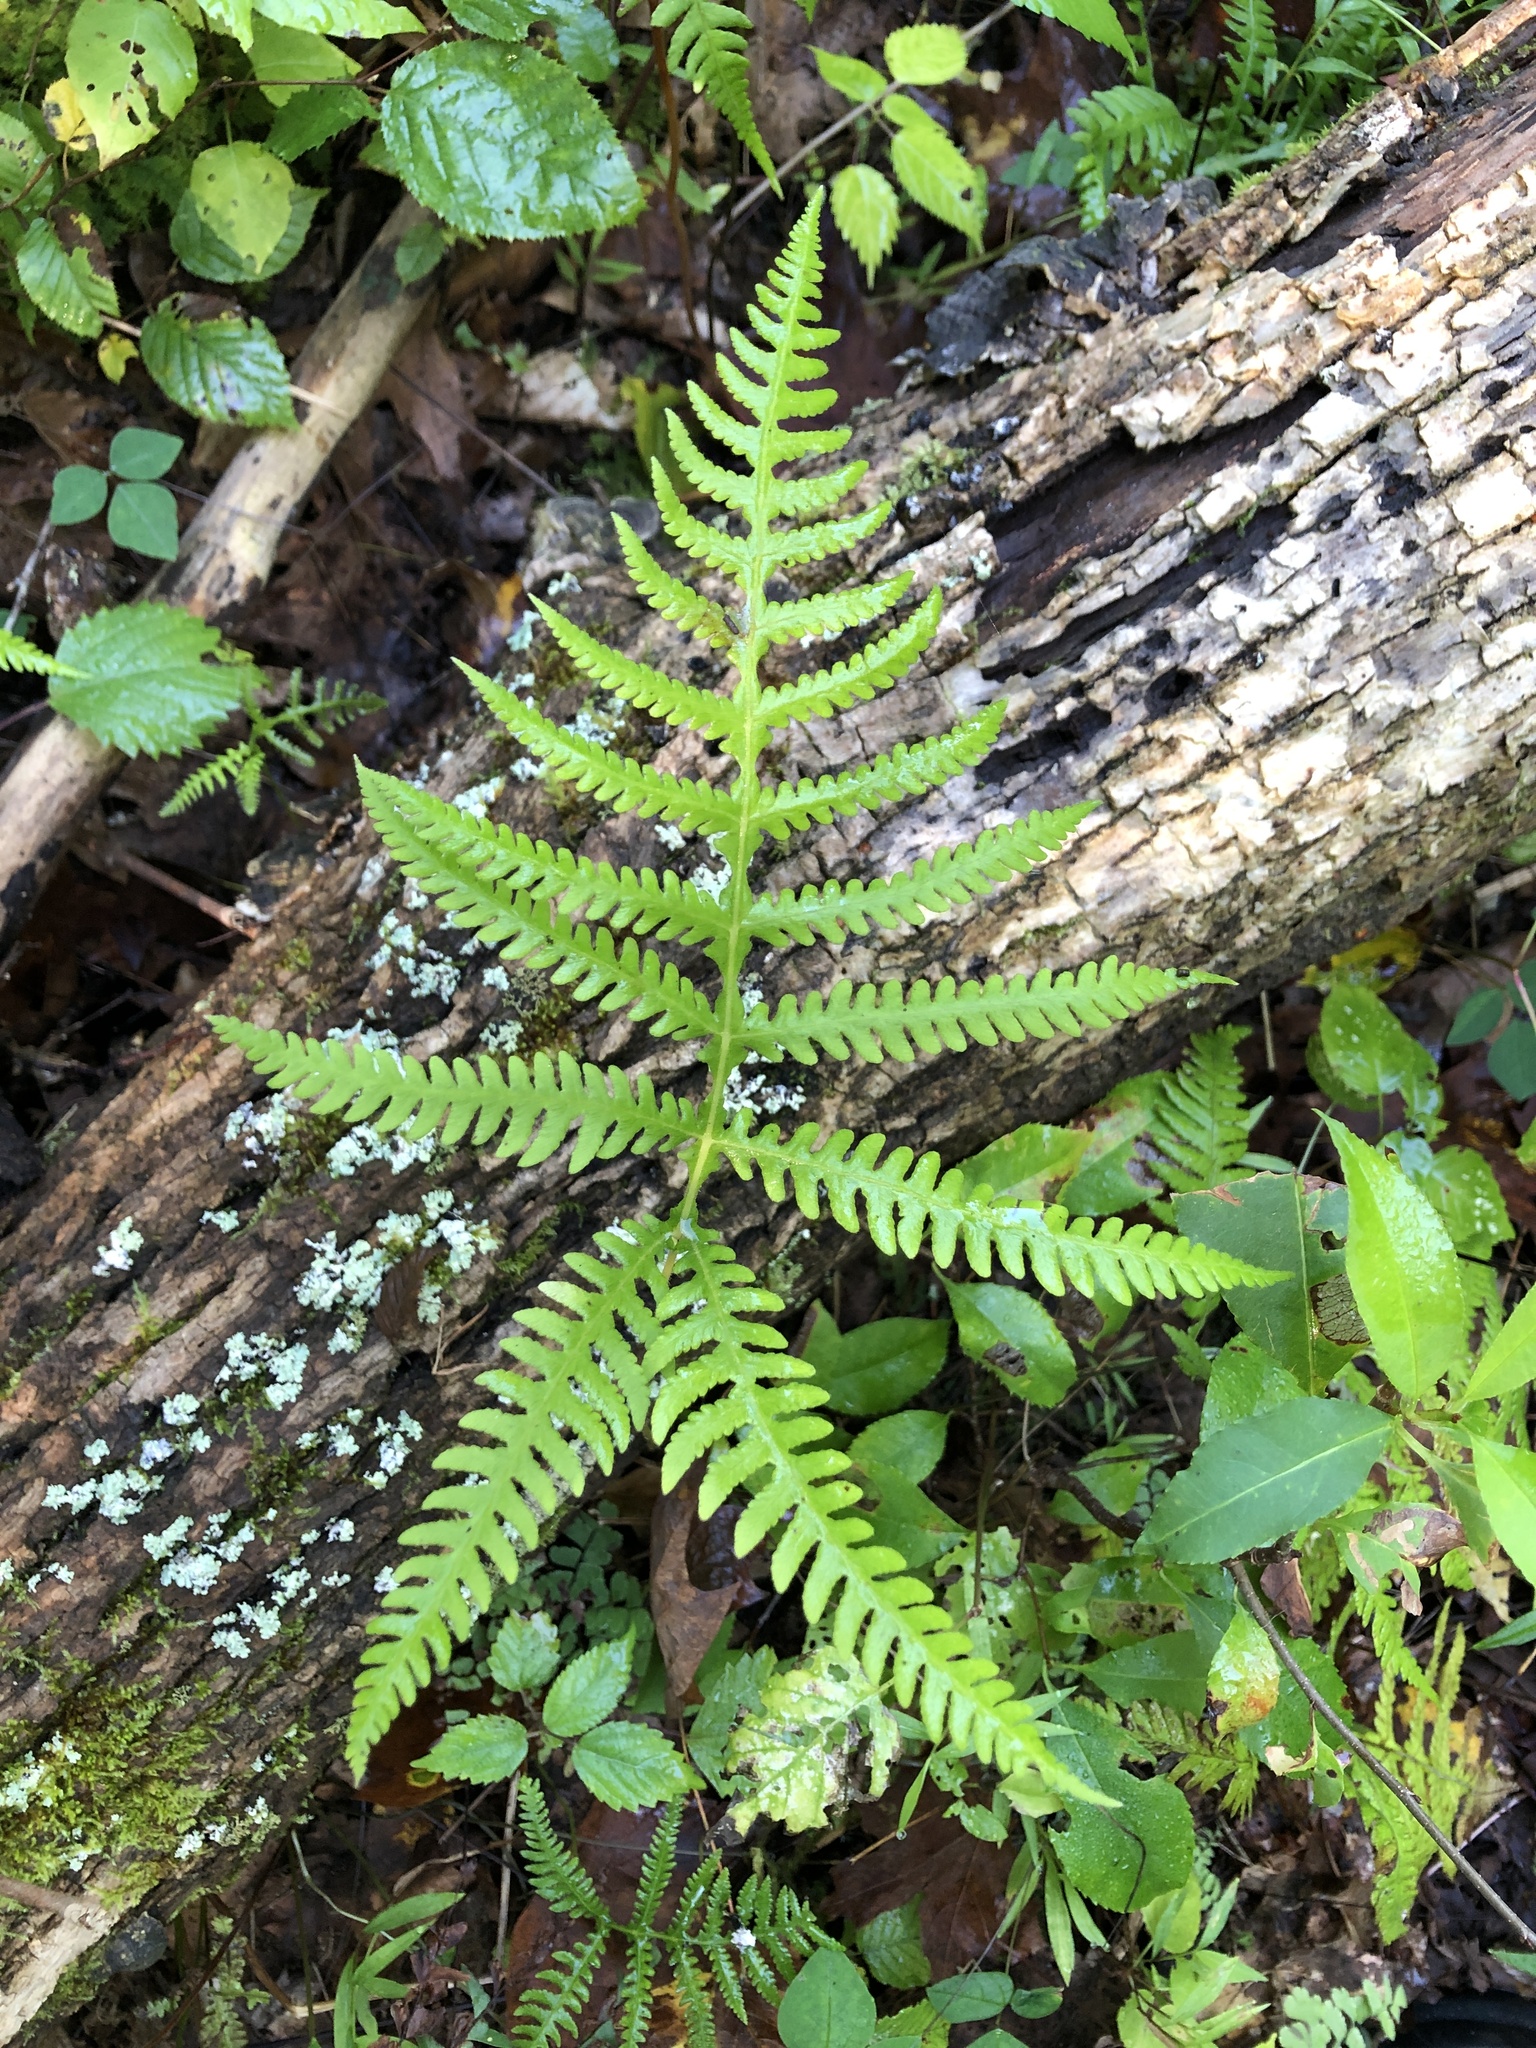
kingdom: Plantae
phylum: Tracheophyta
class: Polypodiopsida
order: Polypodiales
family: Thelypteridaceae
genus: Phegopteris
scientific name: Phegopteris hexagonoptera
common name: Broad beech fern
